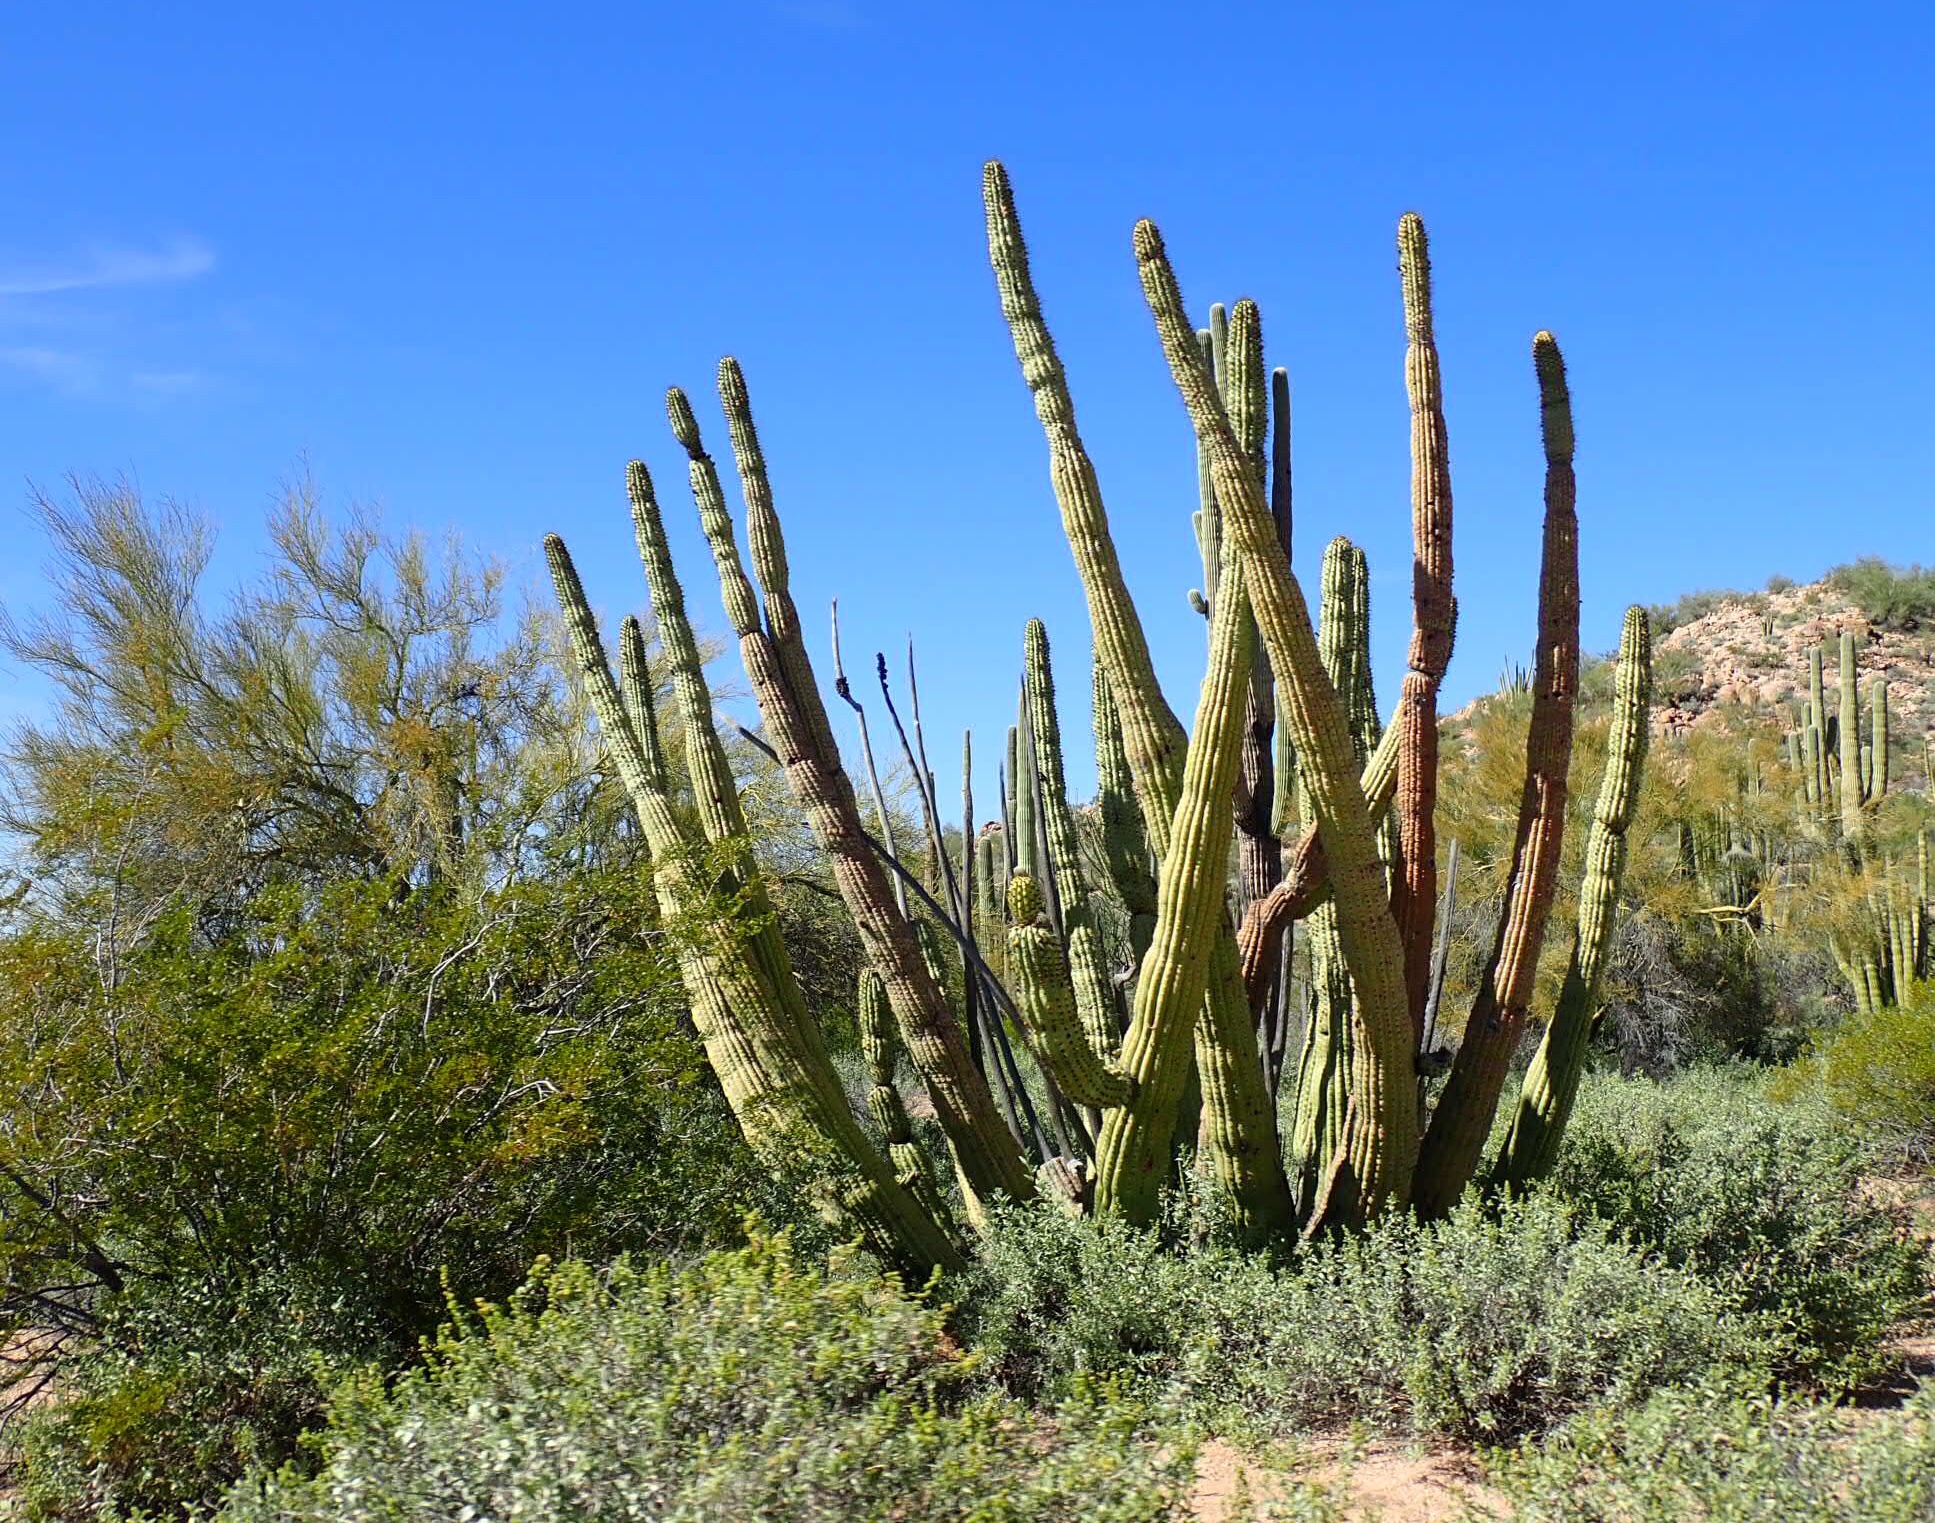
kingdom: Plantae
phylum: Tracheophyta
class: Magnoliopsida
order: Caryophyllales
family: Cactaceae
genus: Stenocereus
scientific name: Stenocereus thurberi
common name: Organ pipe cactus
